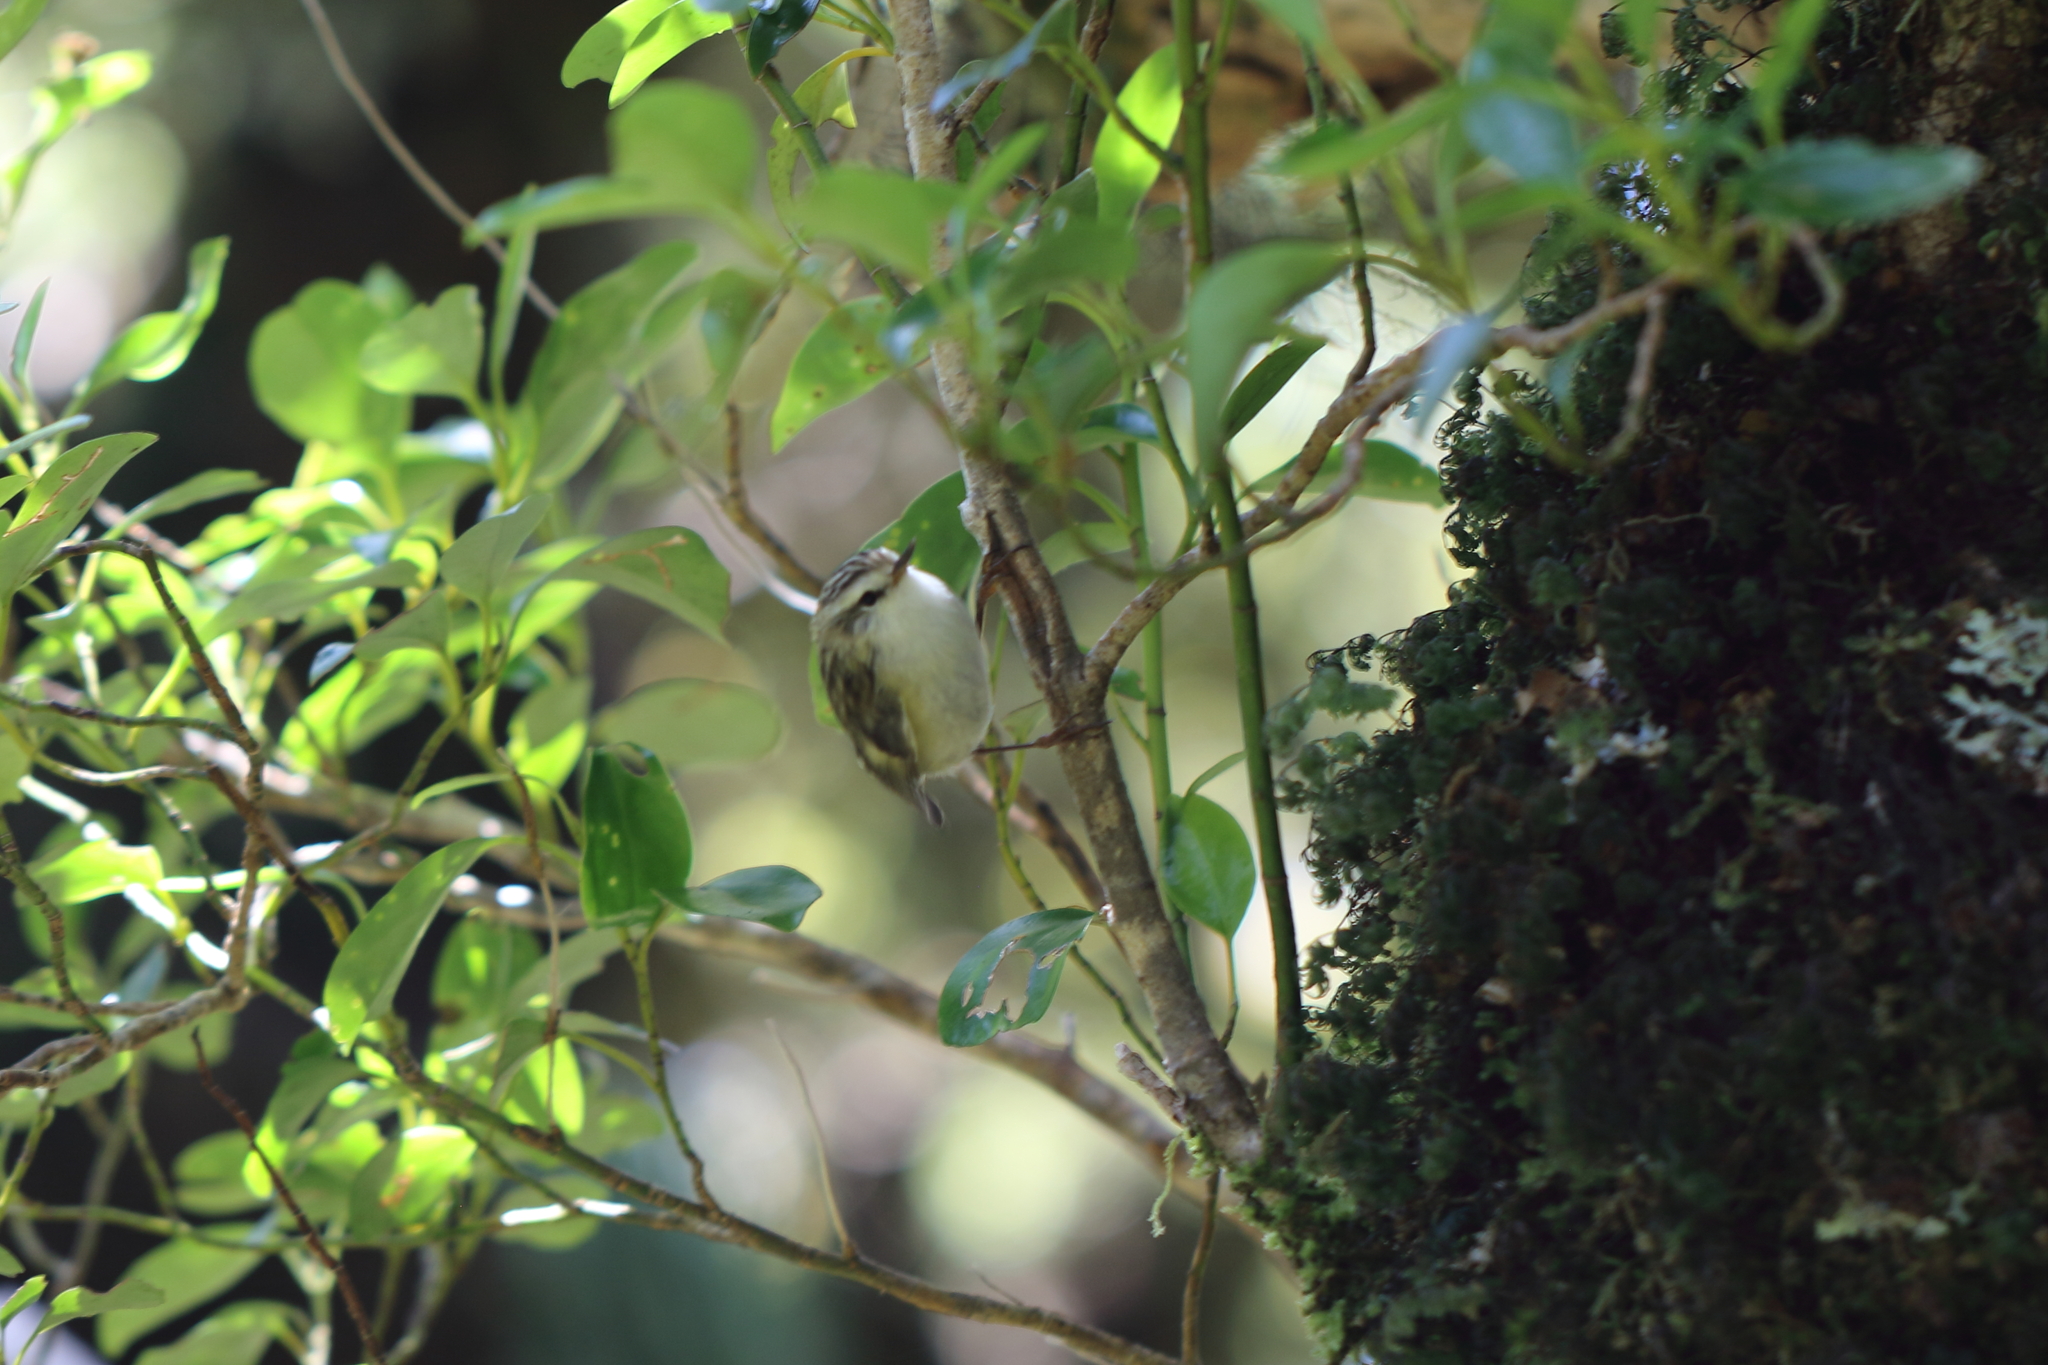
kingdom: Animalia
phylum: Chordata
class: Aves
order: Passeriformes
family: Acanthisittidae
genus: Acanthisitta
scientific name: Acanthisitta chloris
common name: Rifleman
